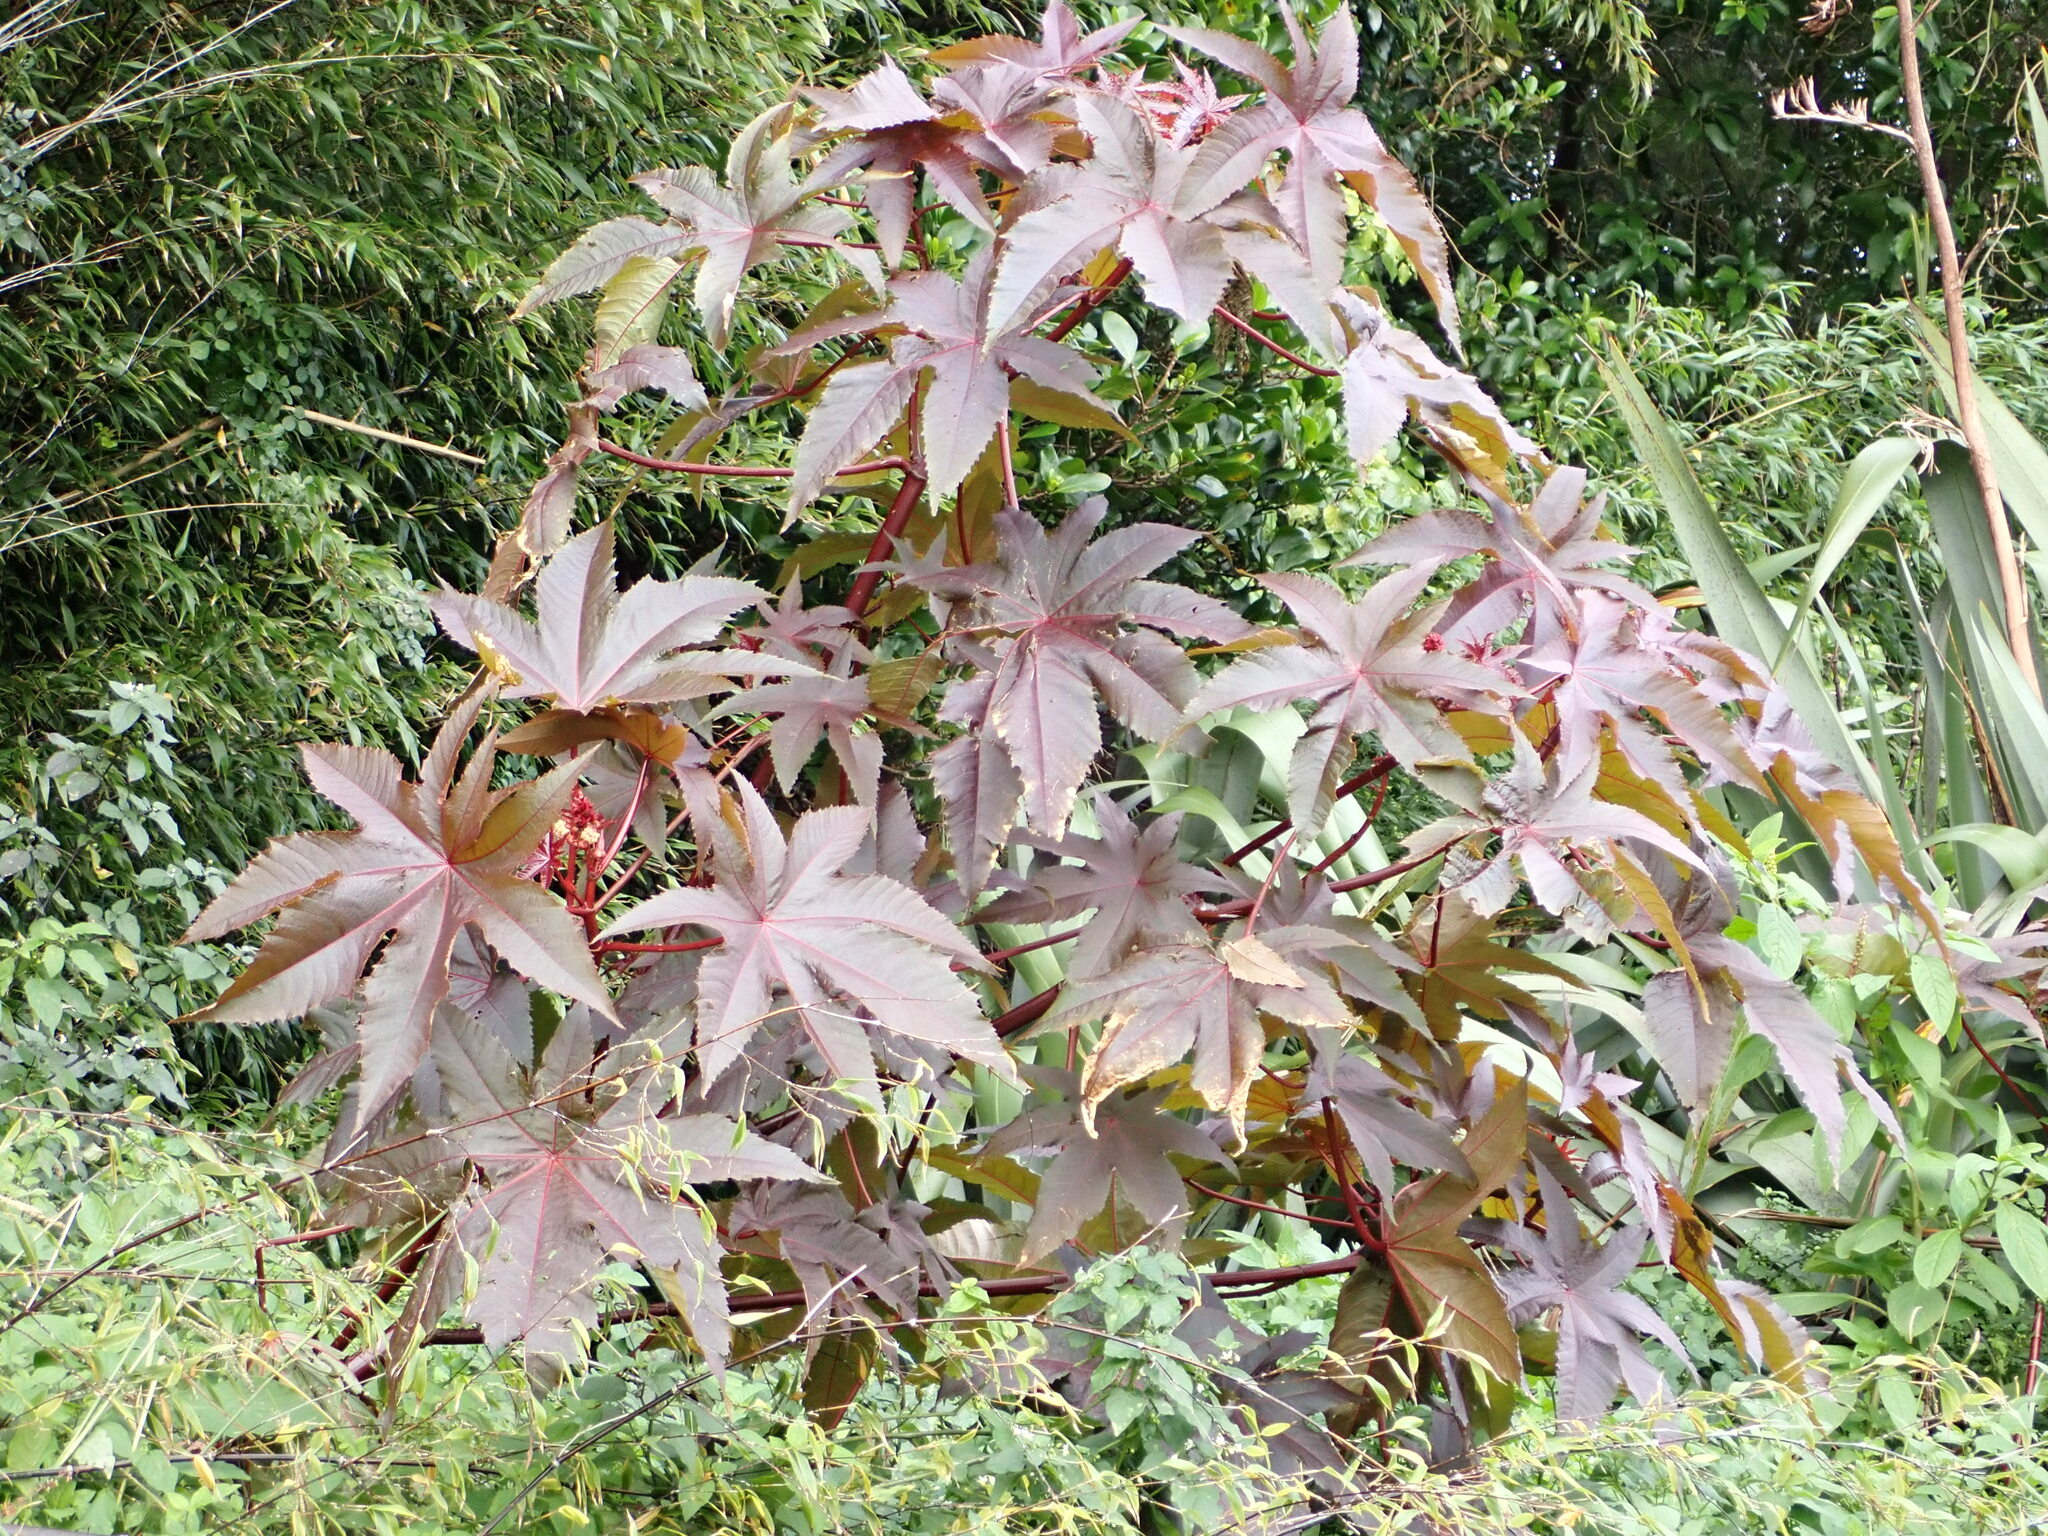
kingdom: Plantae
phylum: Tracheophyta
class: Magnoliopsida
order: Malpighiales
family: Euphorbiaceae
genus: Ricinus
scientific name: Ricinus communis
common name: Castor-oil-plant
